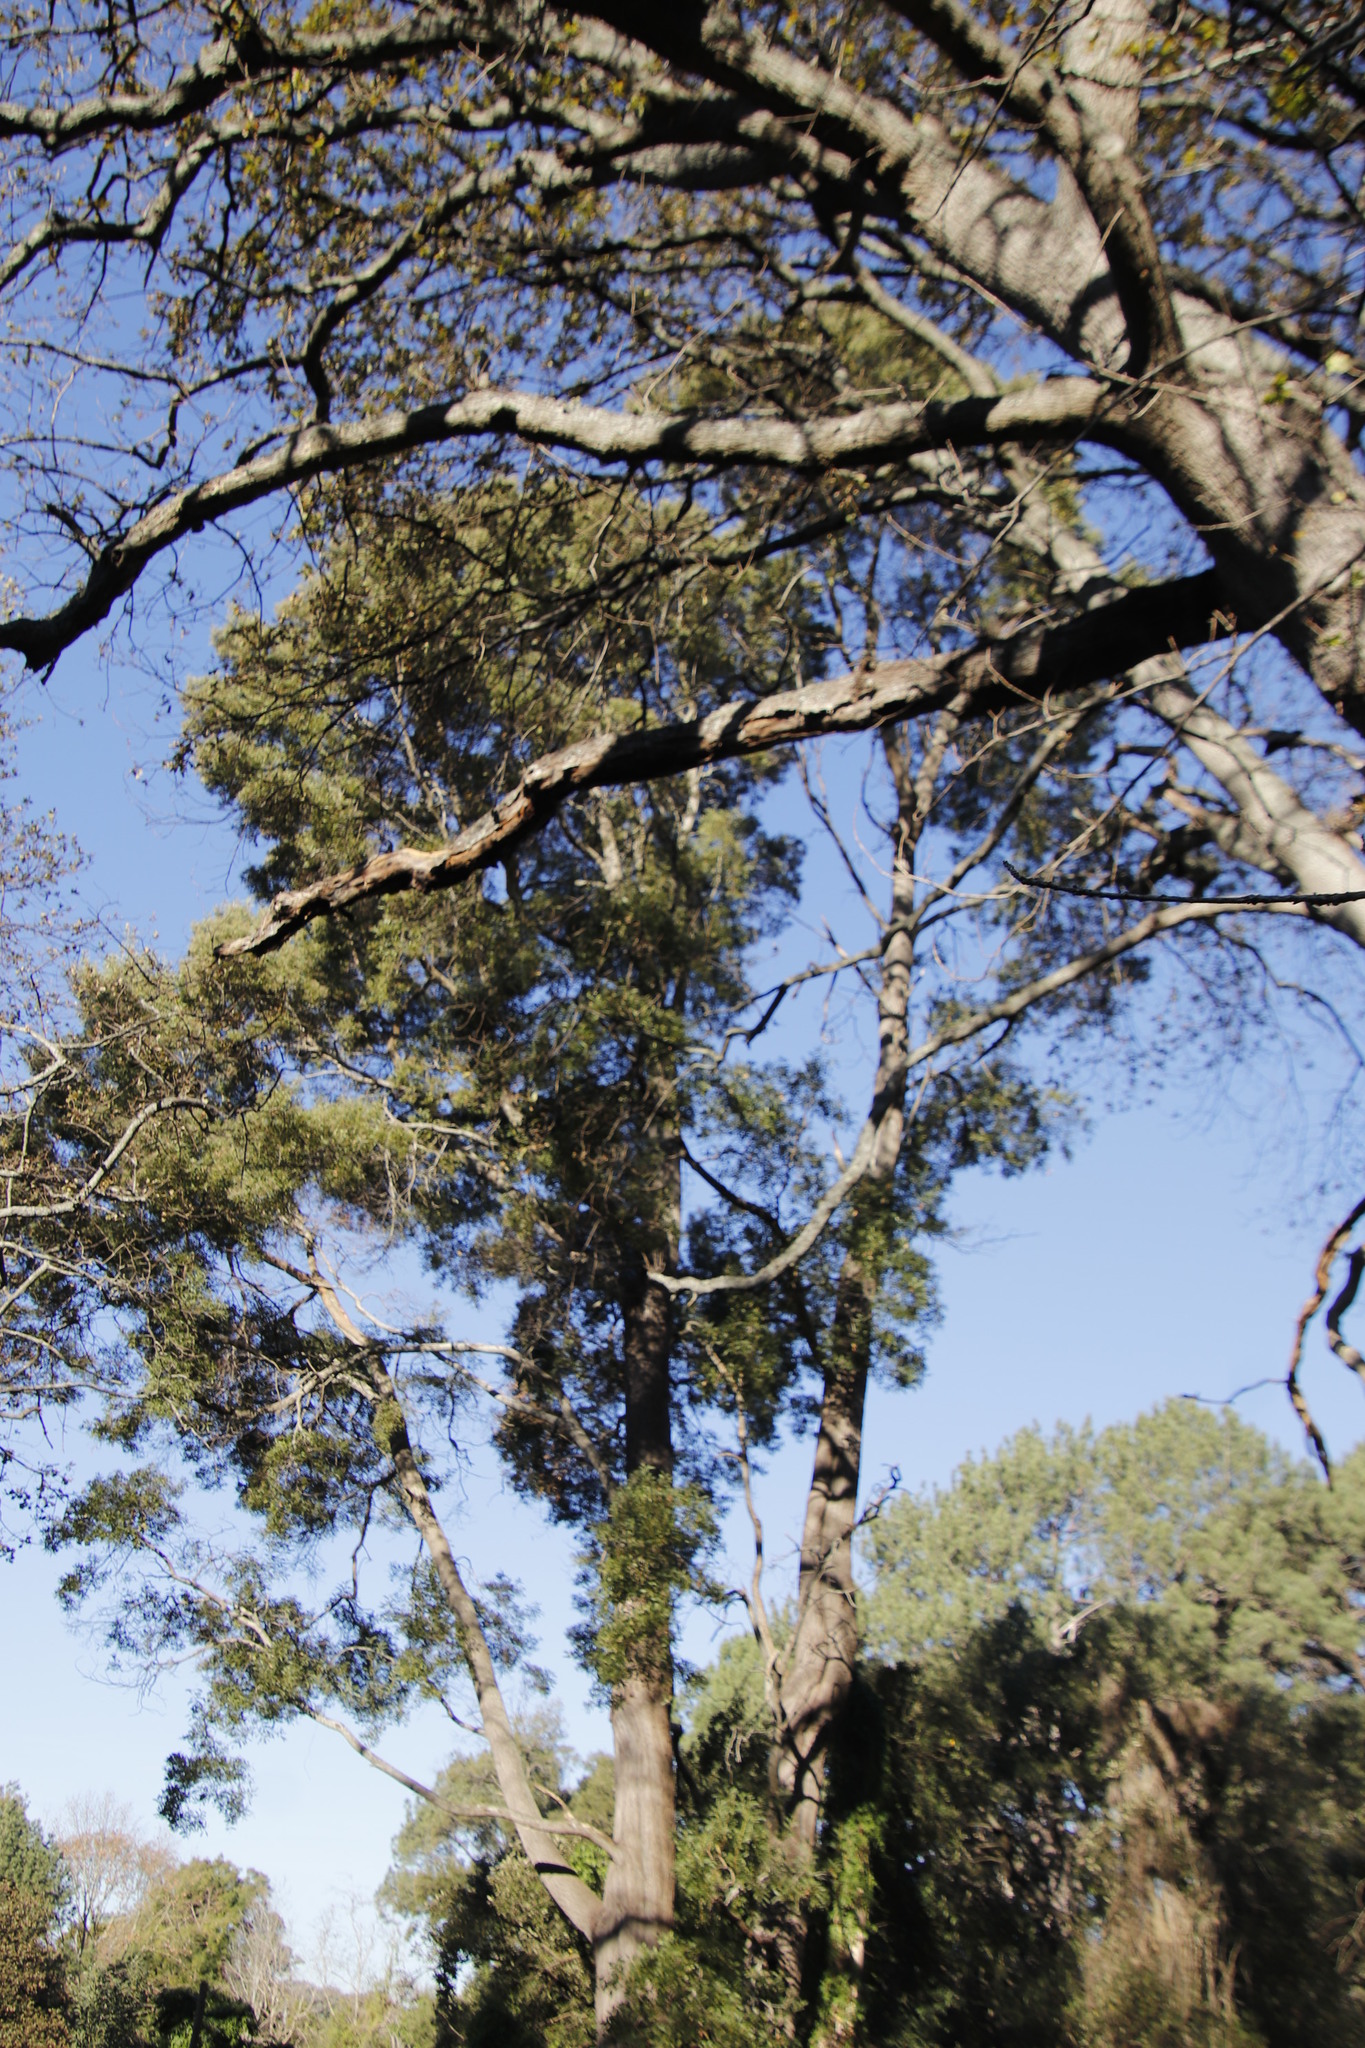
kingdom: Plantae
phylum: Tracheophyta
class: Magnoliopsida
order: Fabales
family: Fabaceae
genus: Acacia
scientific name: Acacia melanoxylon
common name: Blackwood
